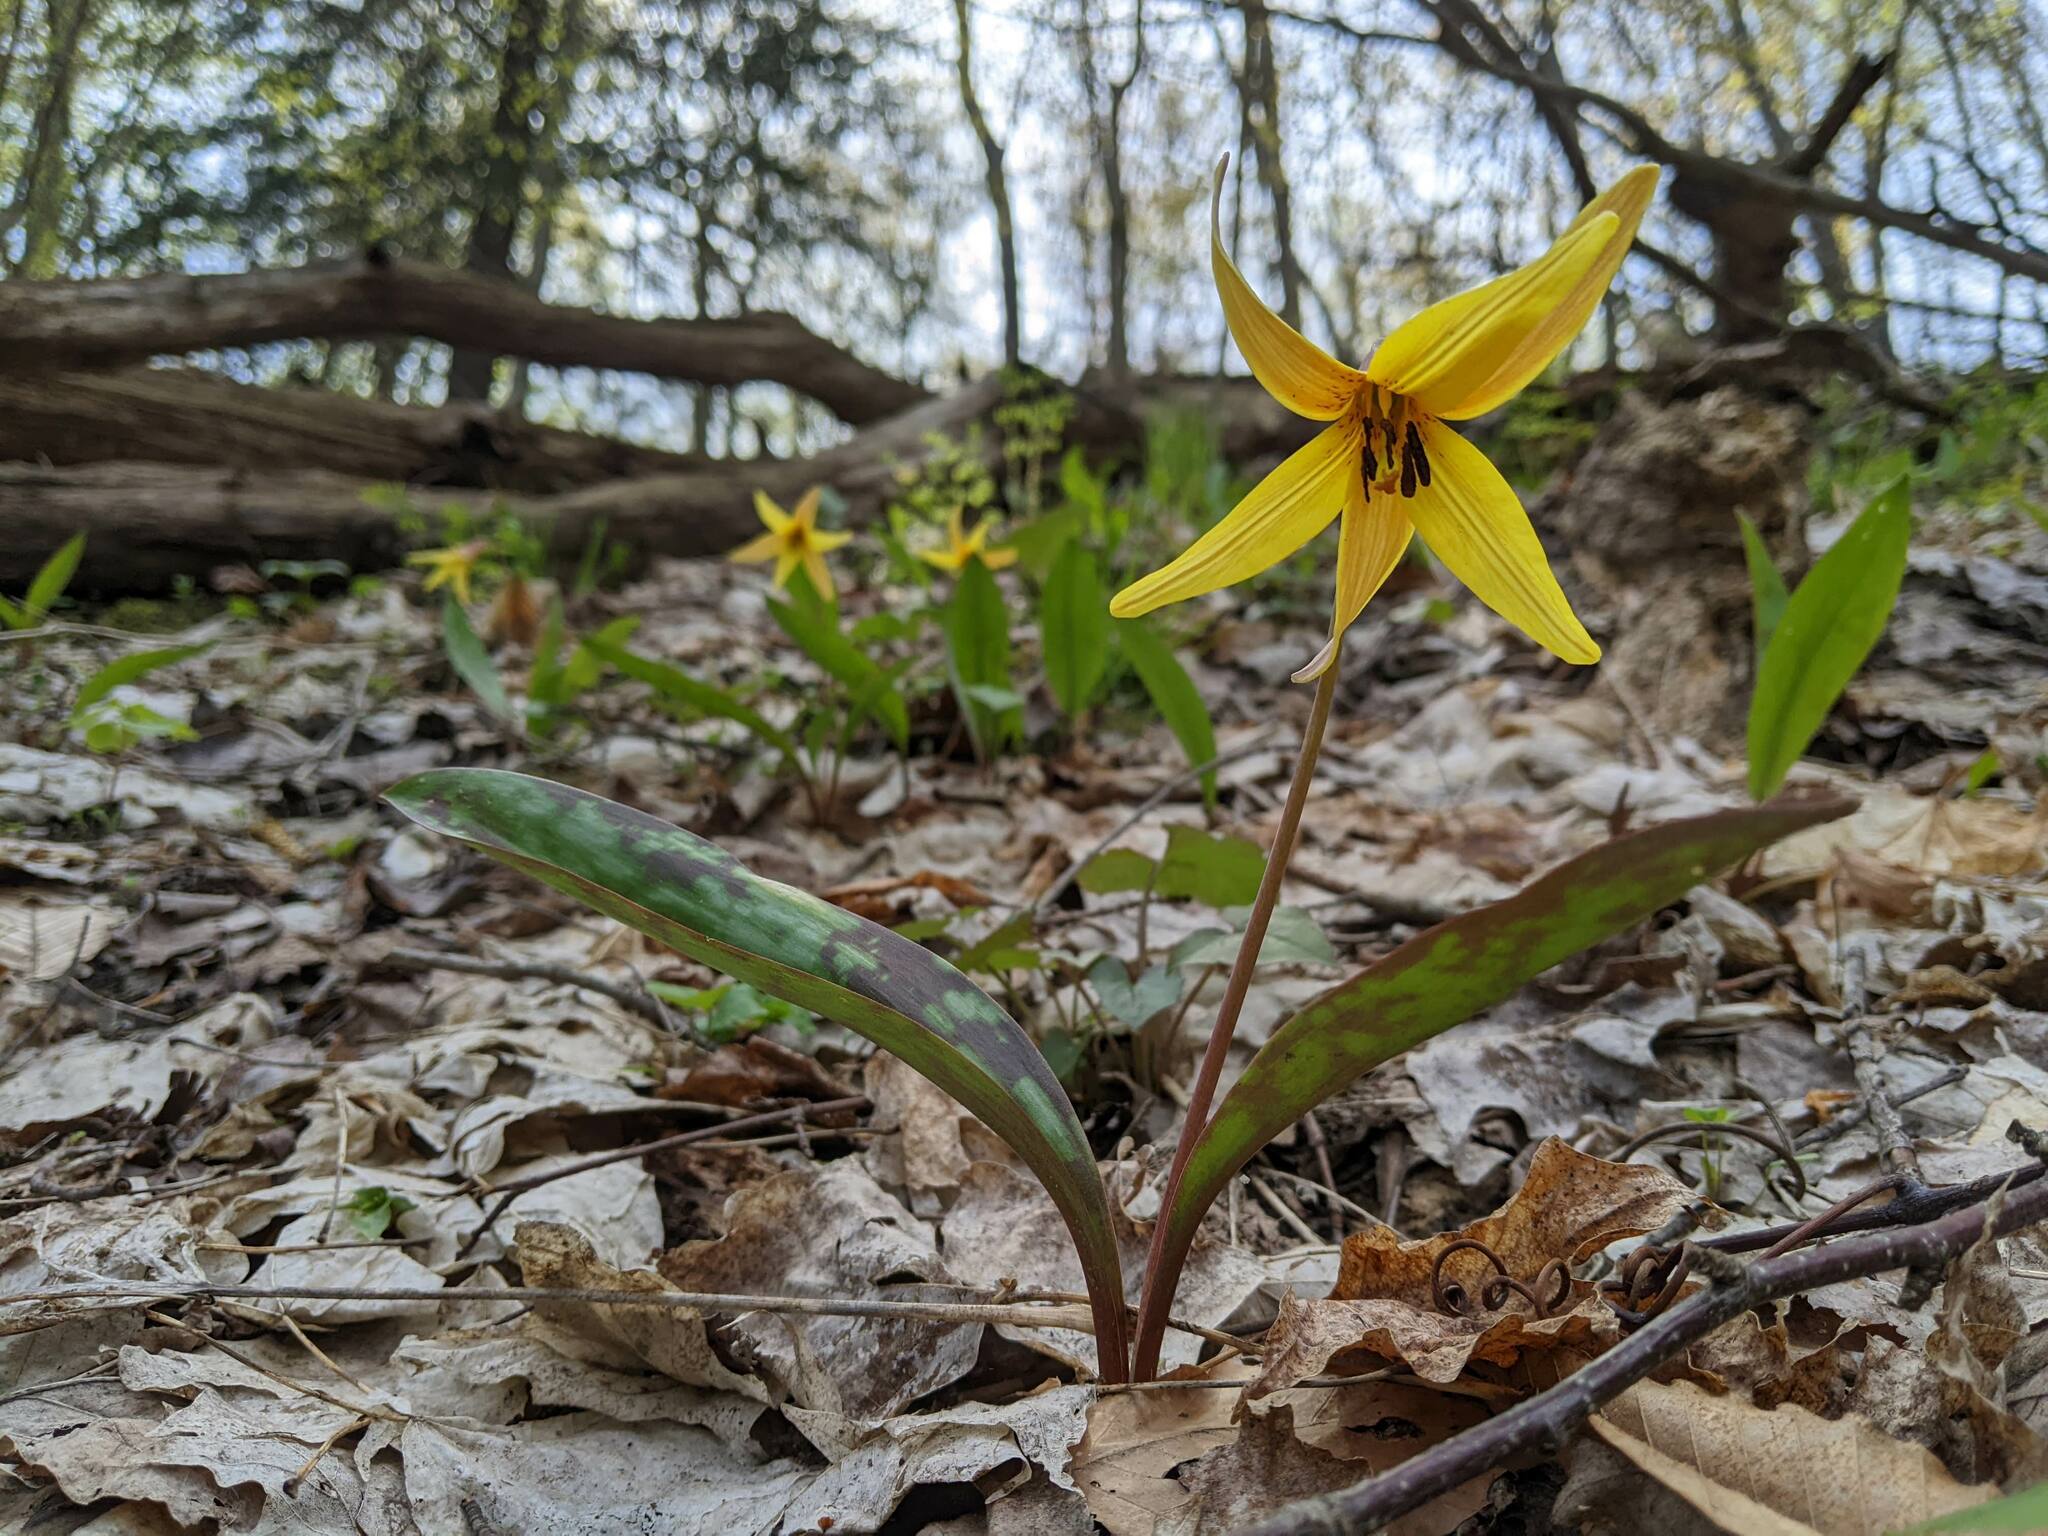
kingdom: Plantae
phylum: Tracheophyta
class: Liliopsida
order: Liliales
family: Liliaceae
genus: Erythronium
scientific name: Erythronium americanum
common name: Yellow adder's-tongue
